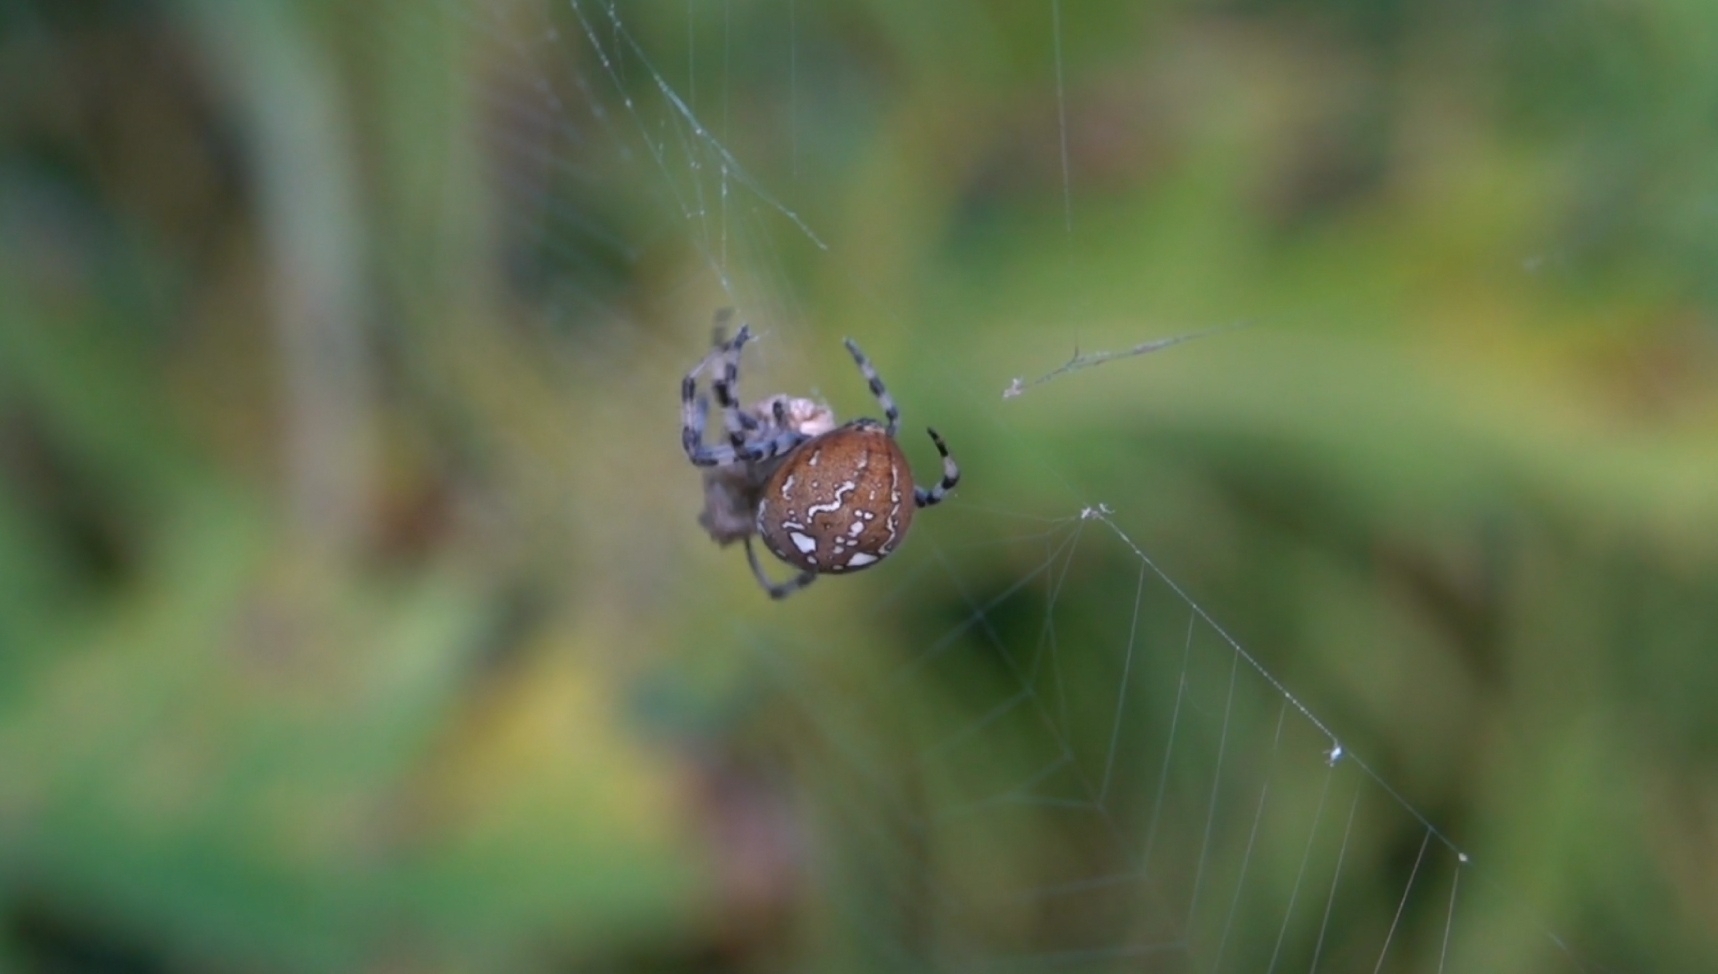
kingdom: Animalia
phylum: Arthropoda
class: Arachnida
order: Araneae
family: Araneidae
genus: Araneus
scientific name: Araneus quadratus
